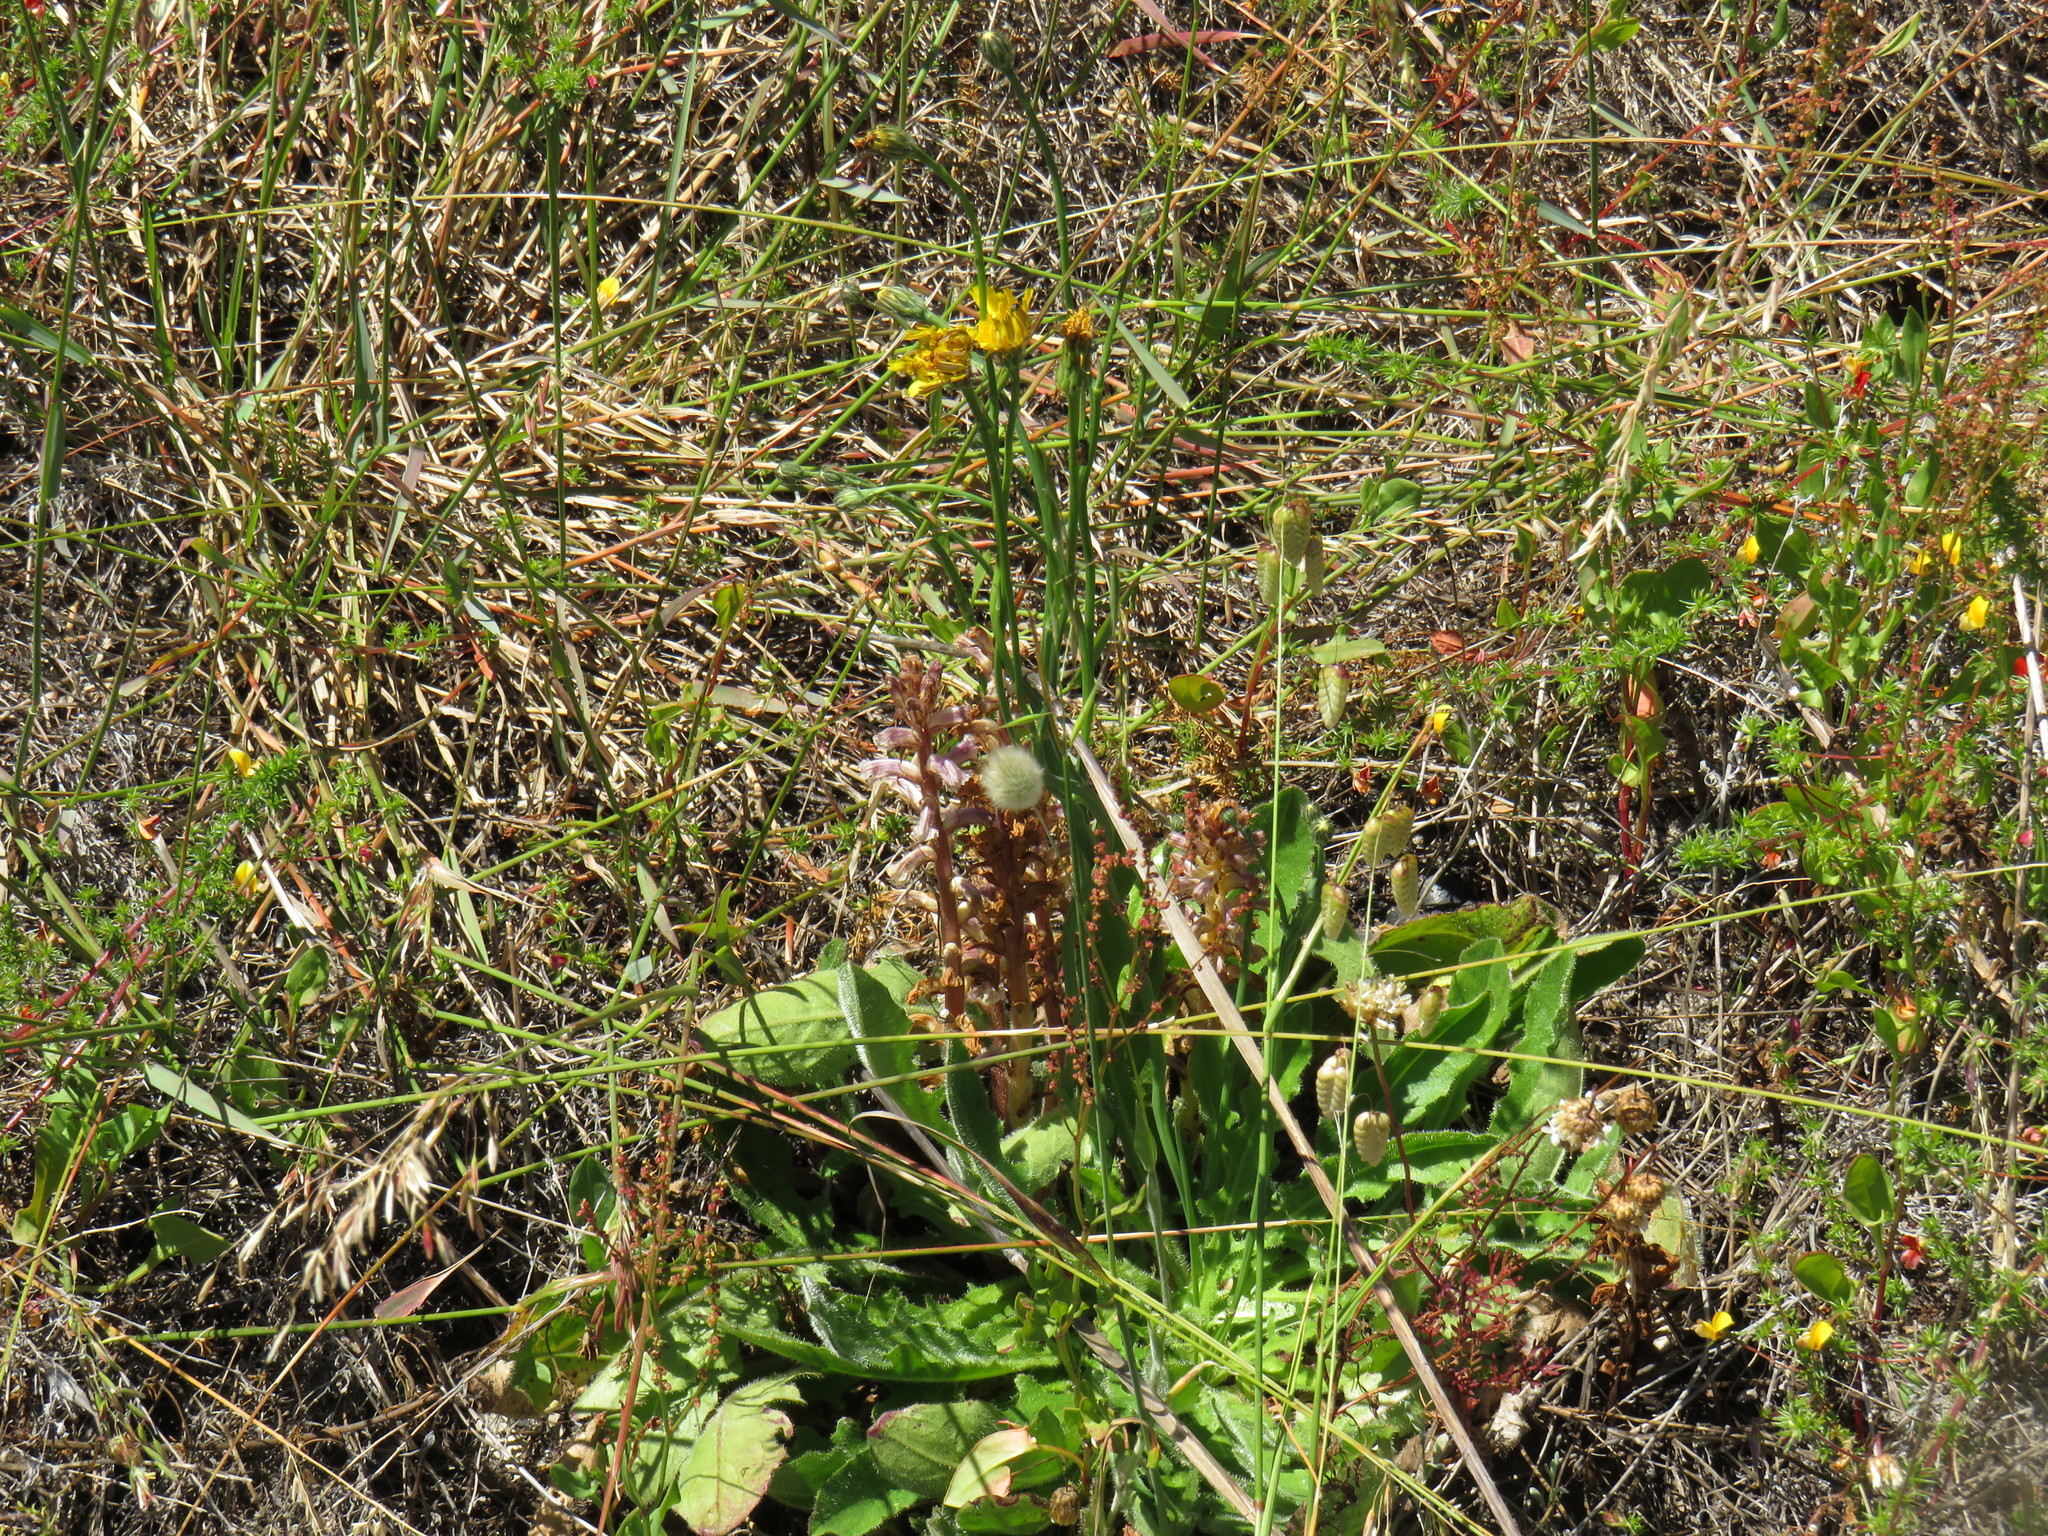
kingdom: Plantae
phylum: Tracheophyta
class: Magnoliopsida
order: Asterales
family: Asteraceae
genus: Hypochaeris
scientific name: Hypochaeris radicata
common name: Flatweed
